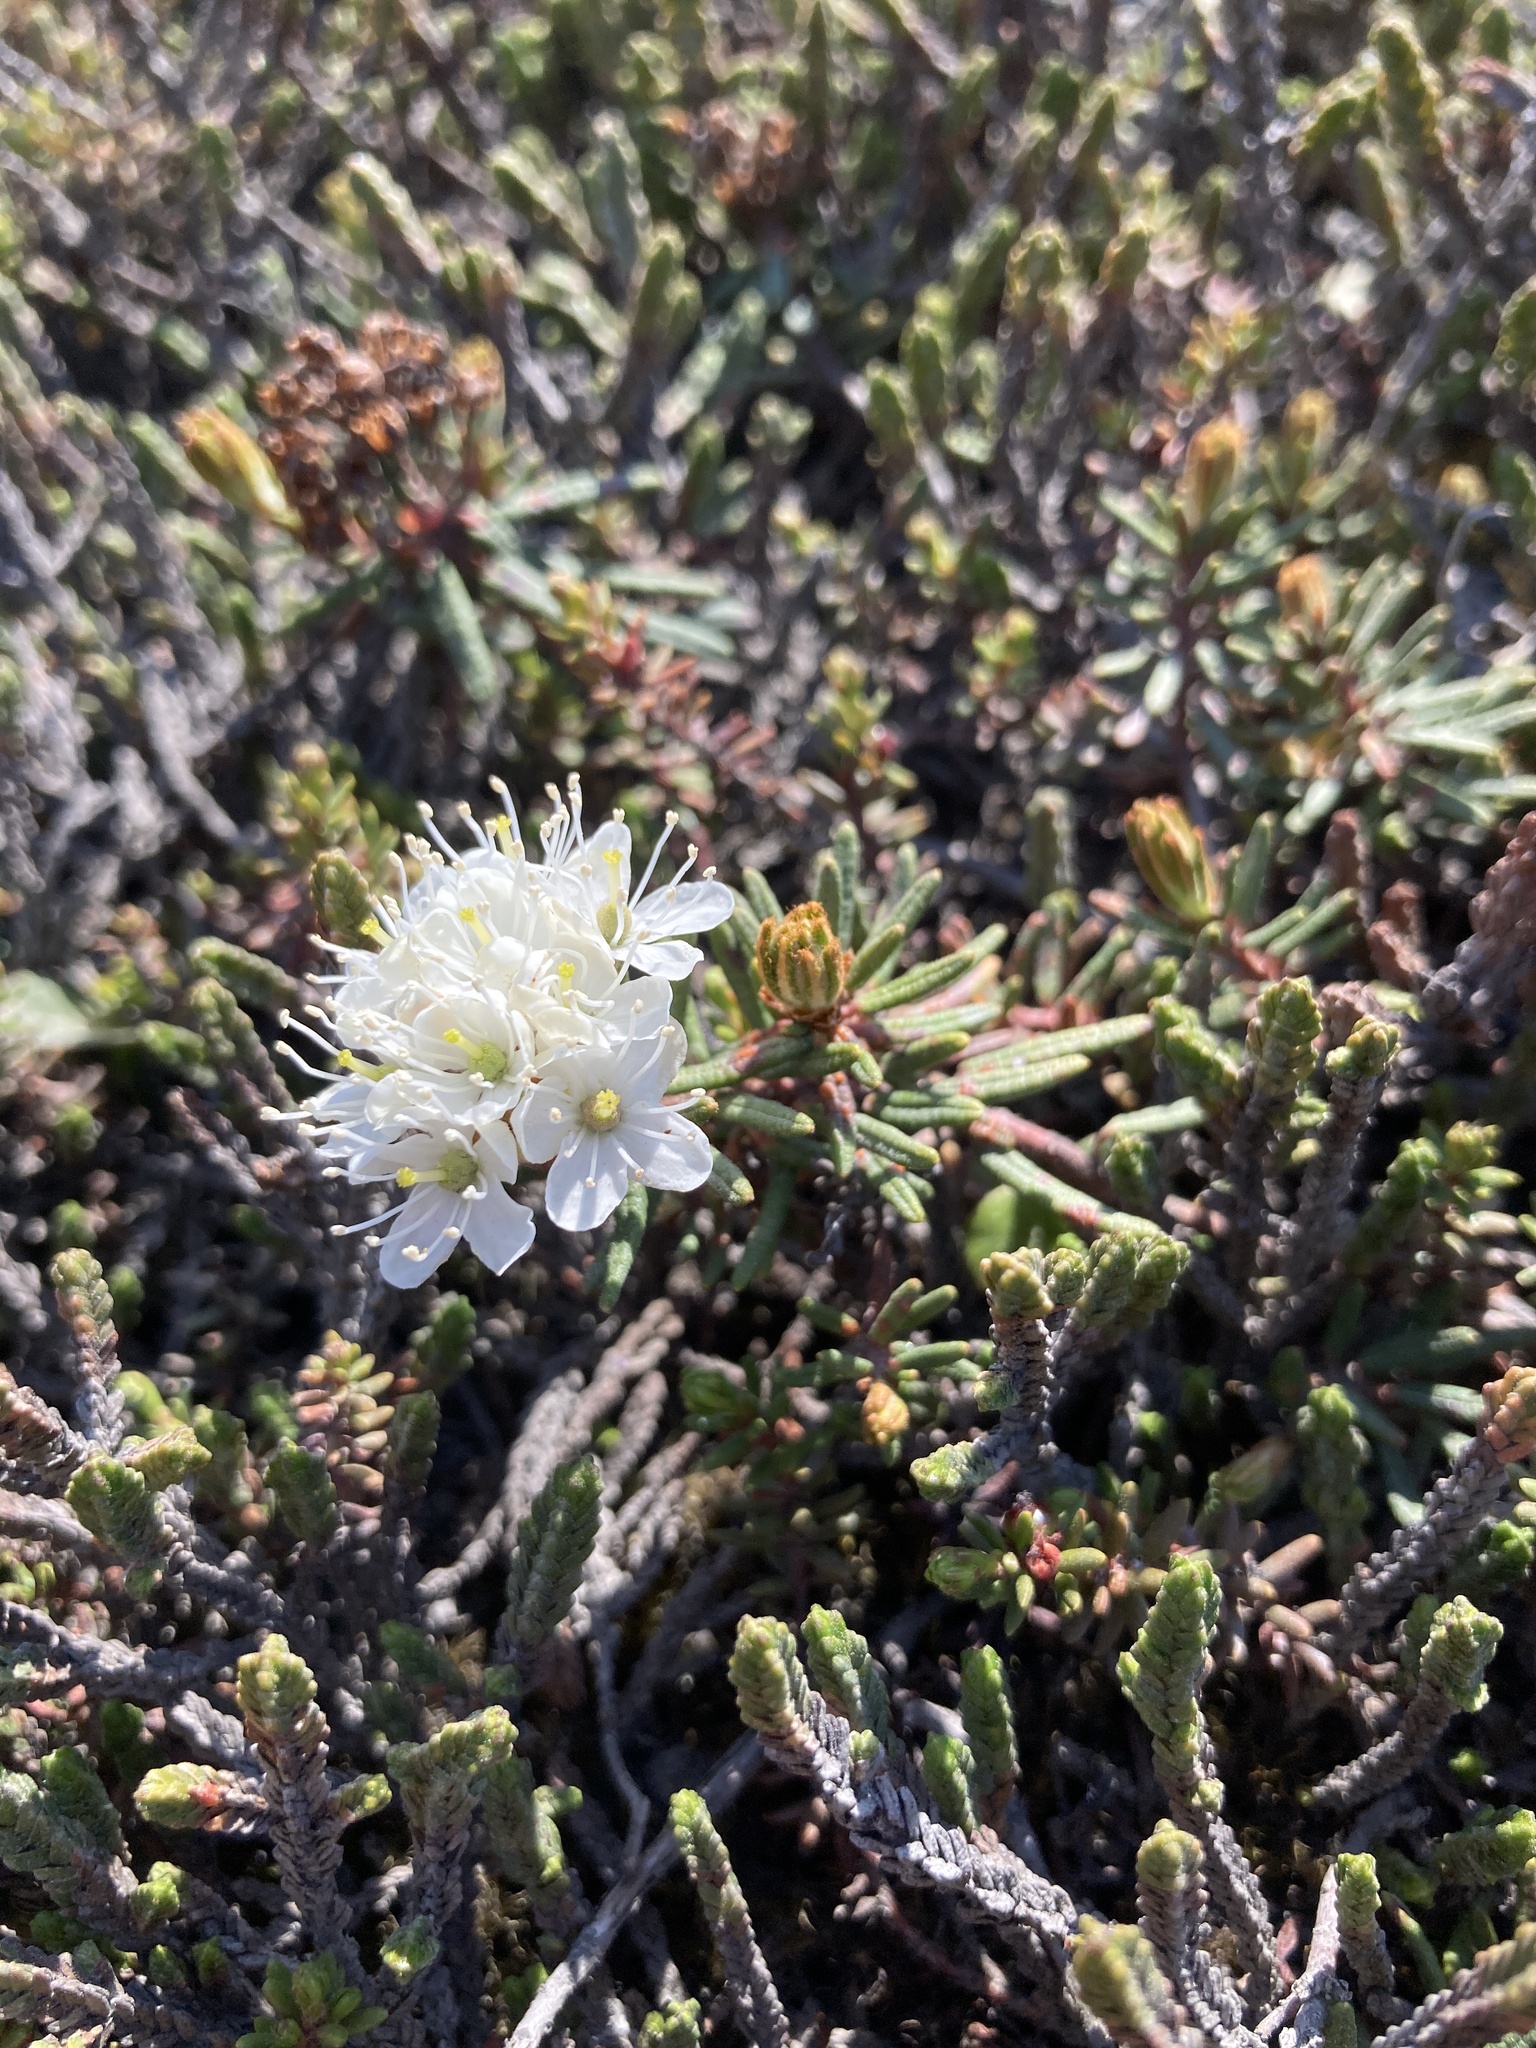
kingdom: Plantae
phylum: Tracheophyta
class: Magnoliopsida
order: Ericales
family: Ericaceae
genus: Rhododendron
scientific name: Rhododendron tomentosum
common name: Marsh labrador tea
